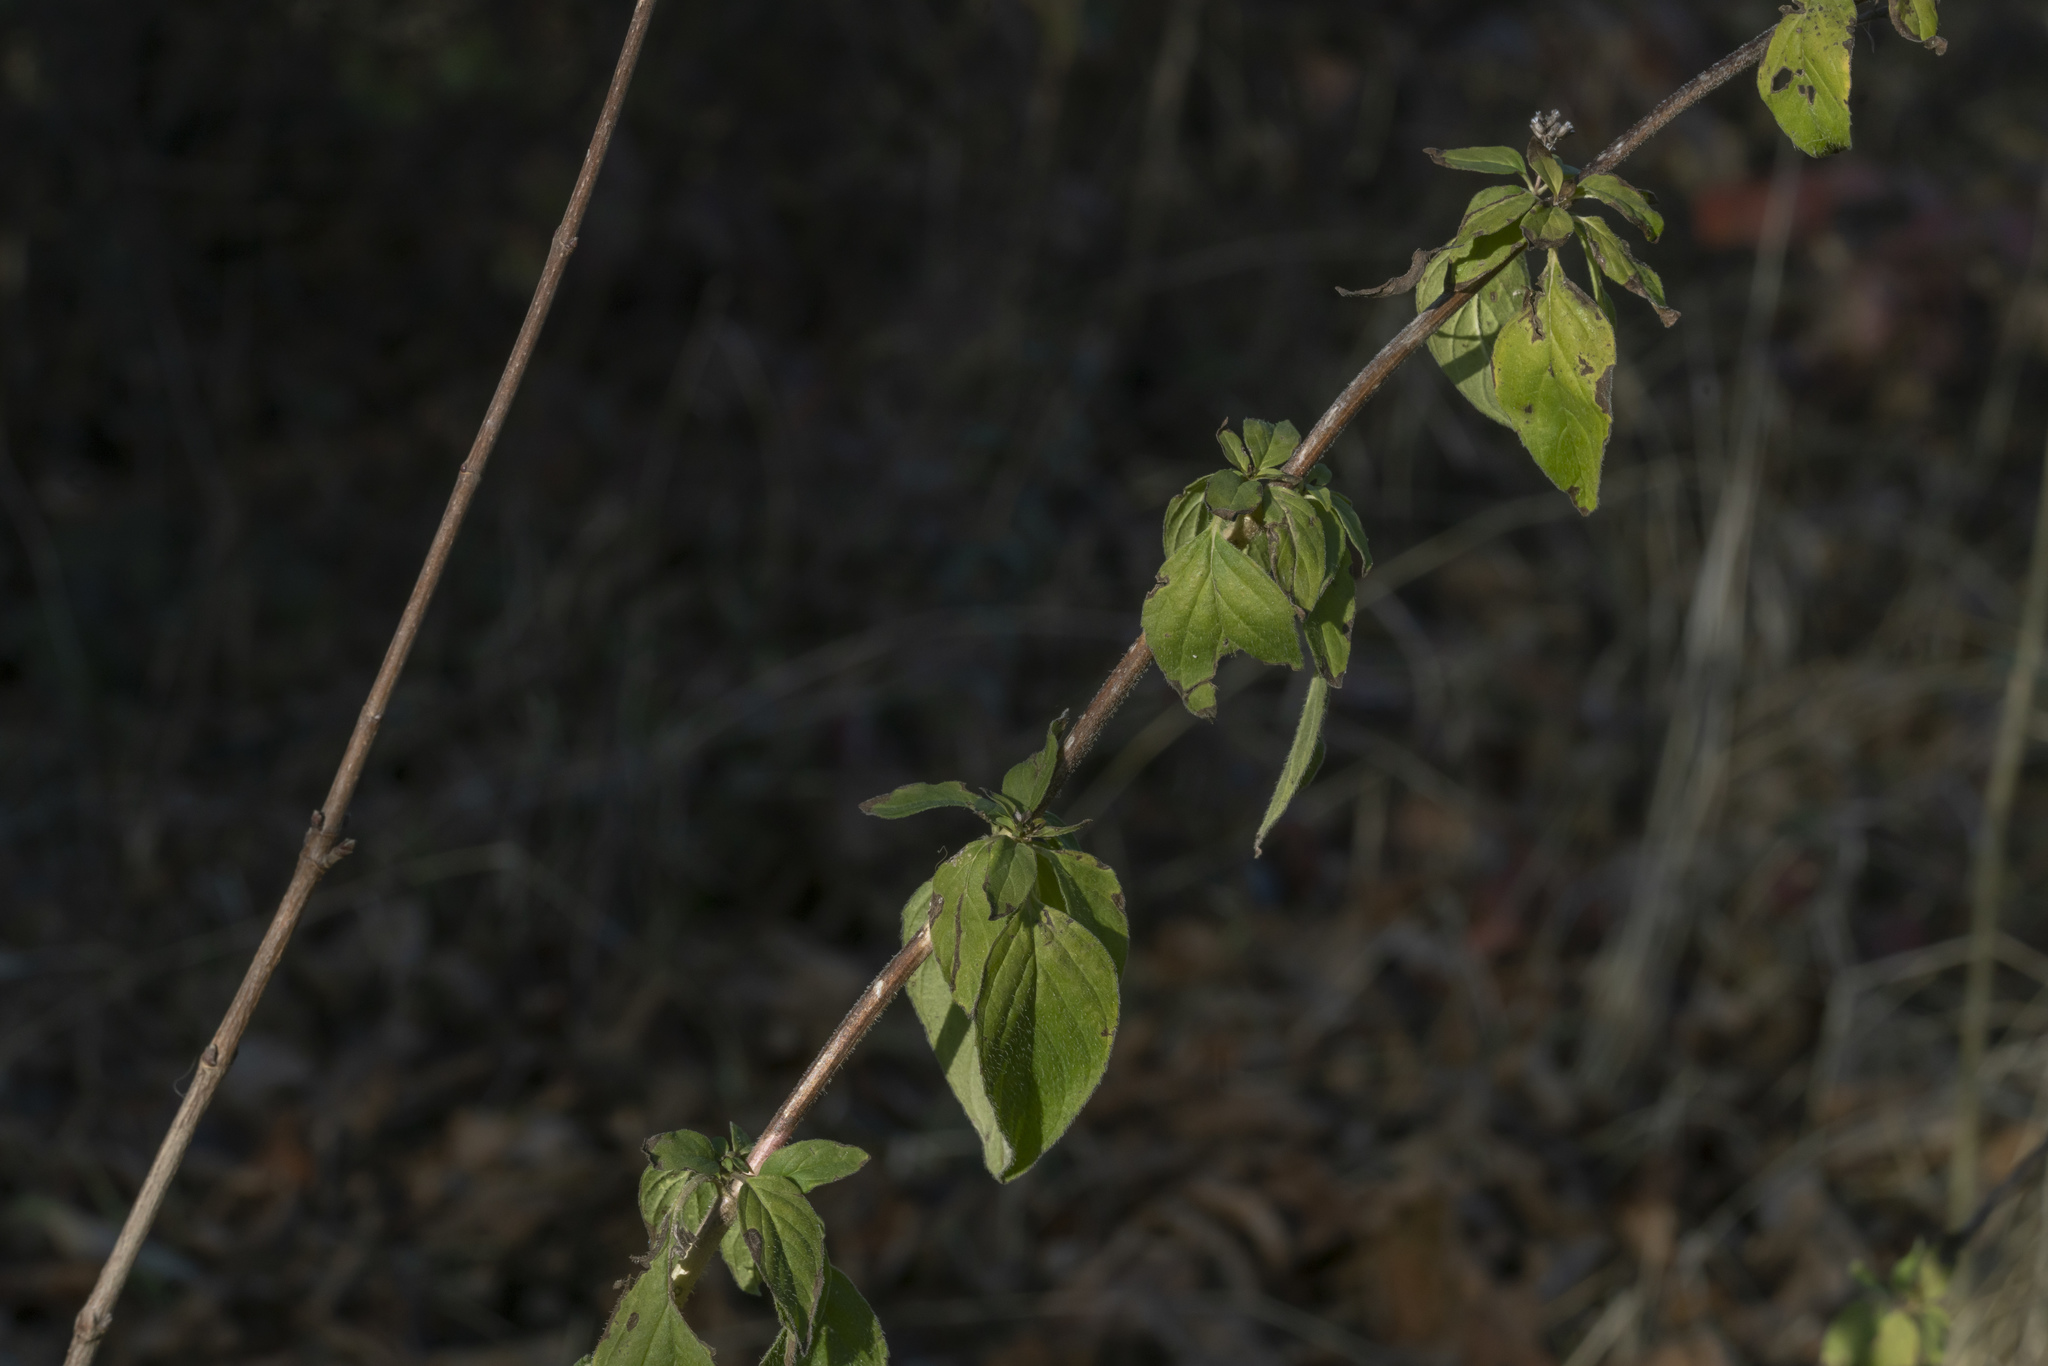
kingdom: Plantae
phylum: Tracheophyta
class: Magnoliopsida
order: Lamiales
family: Lamiaceae
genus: Origanum
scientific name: Origanum vulgare
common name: Wild marjoram
